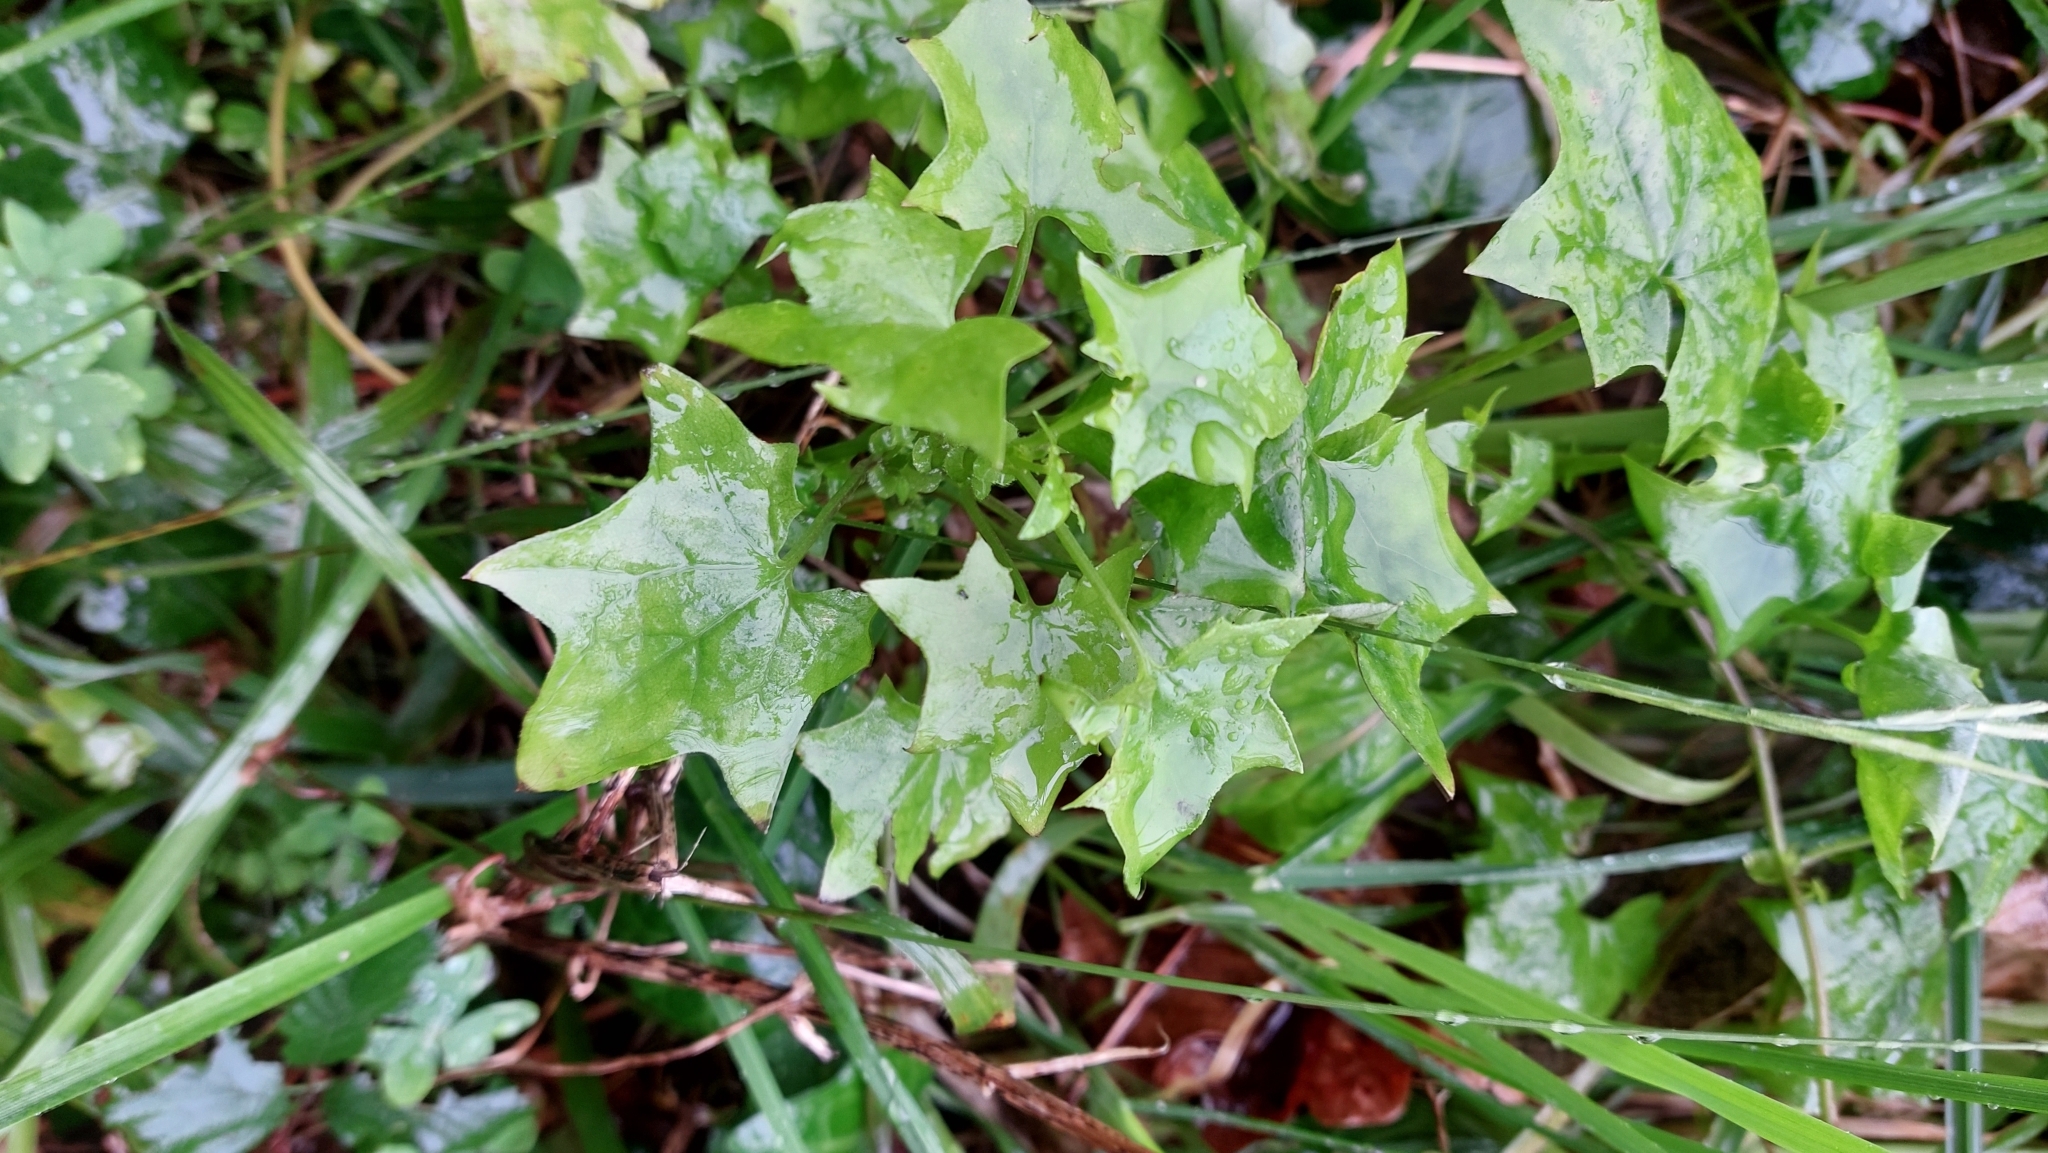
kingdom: Plantae
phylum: Tracheophyta
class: Magnoliopsida
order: Asterales
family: Asteraceae
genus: Delairea
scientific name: Delairea odorata
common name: Cape-ivy
